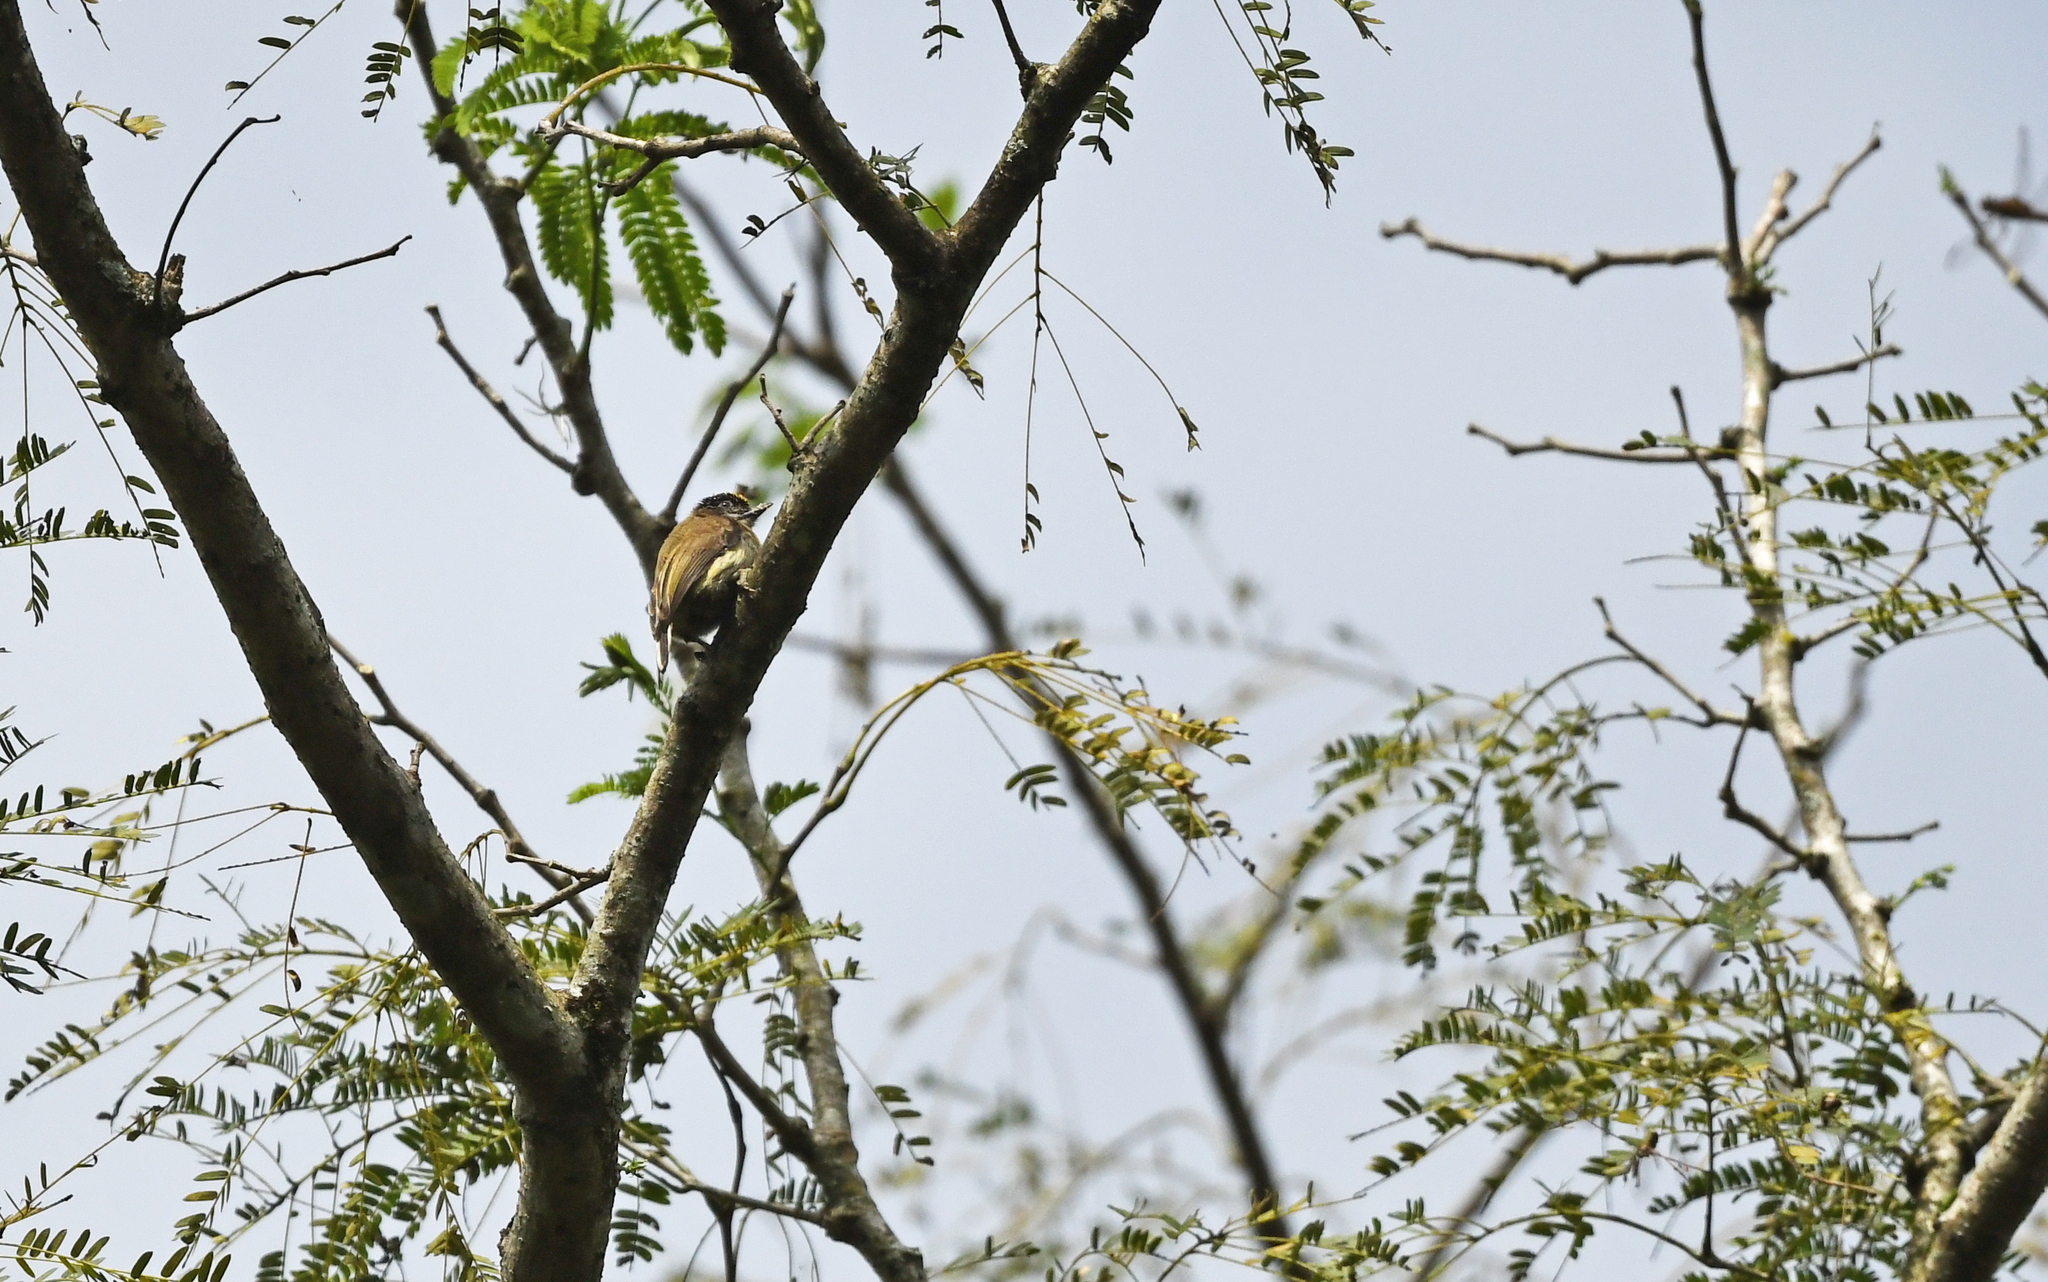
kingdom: Animalia
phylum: Chordata
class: Aves
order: Piciformes
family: Picidae
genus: Picumnus
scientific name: Picumnus granadensis
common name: Greyish piculet
